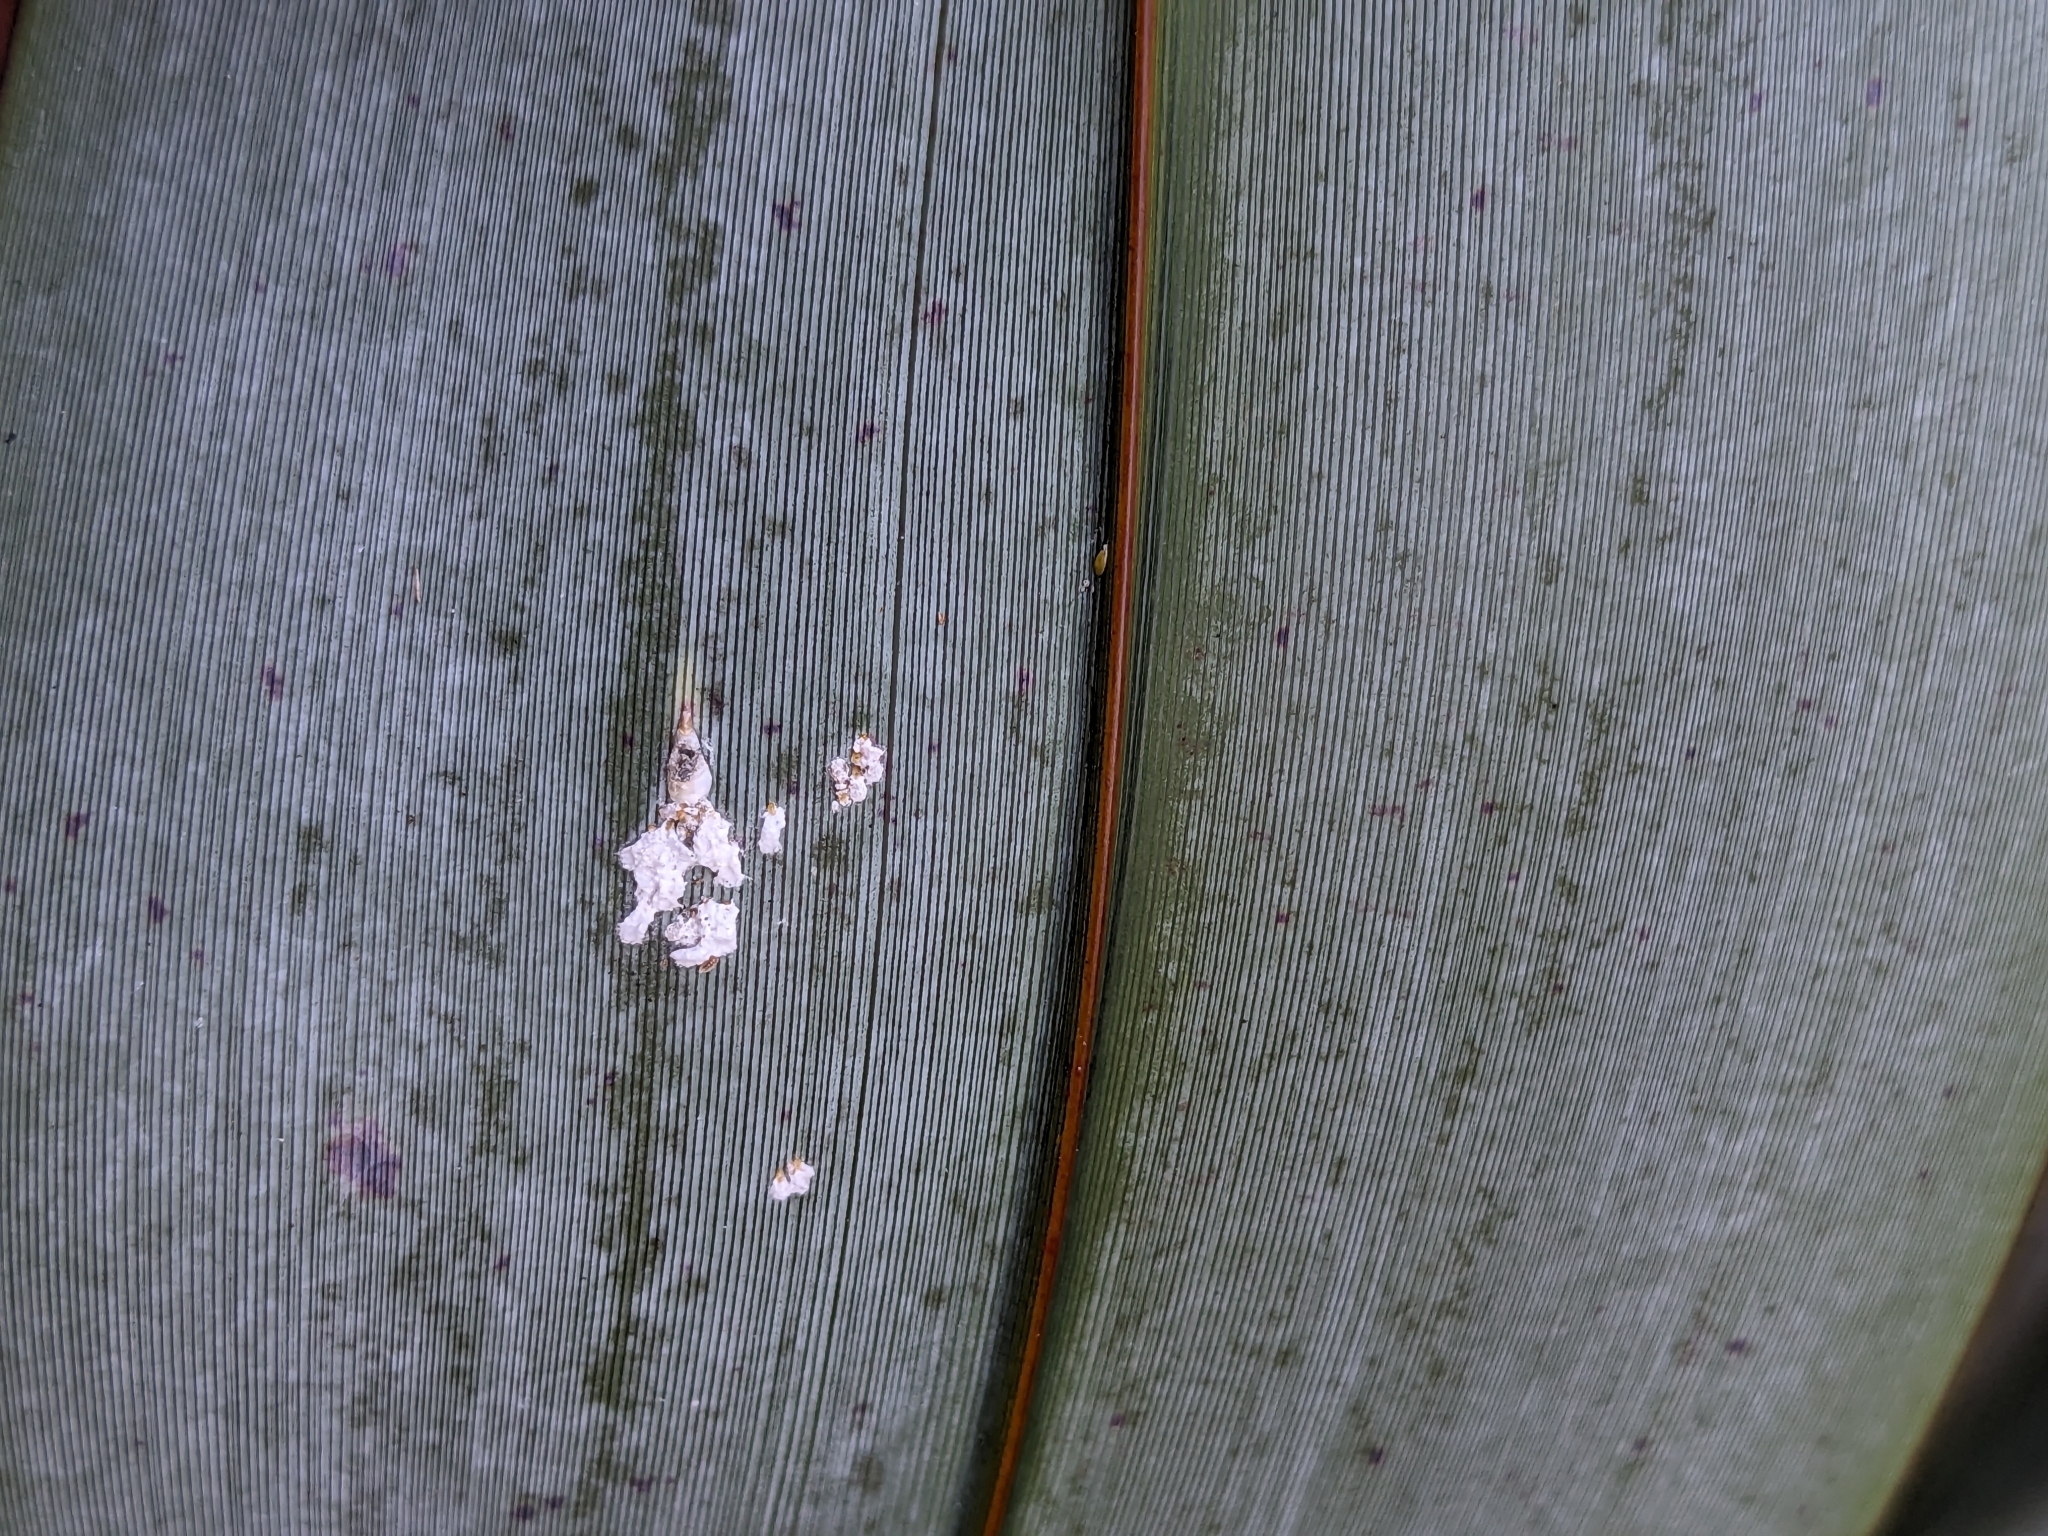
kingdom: Animalia
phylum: Arthropoda
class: Insecta
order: Hemiptera
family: Diaspididae
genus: Poliaspis
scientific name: Poliaspis floccosa
